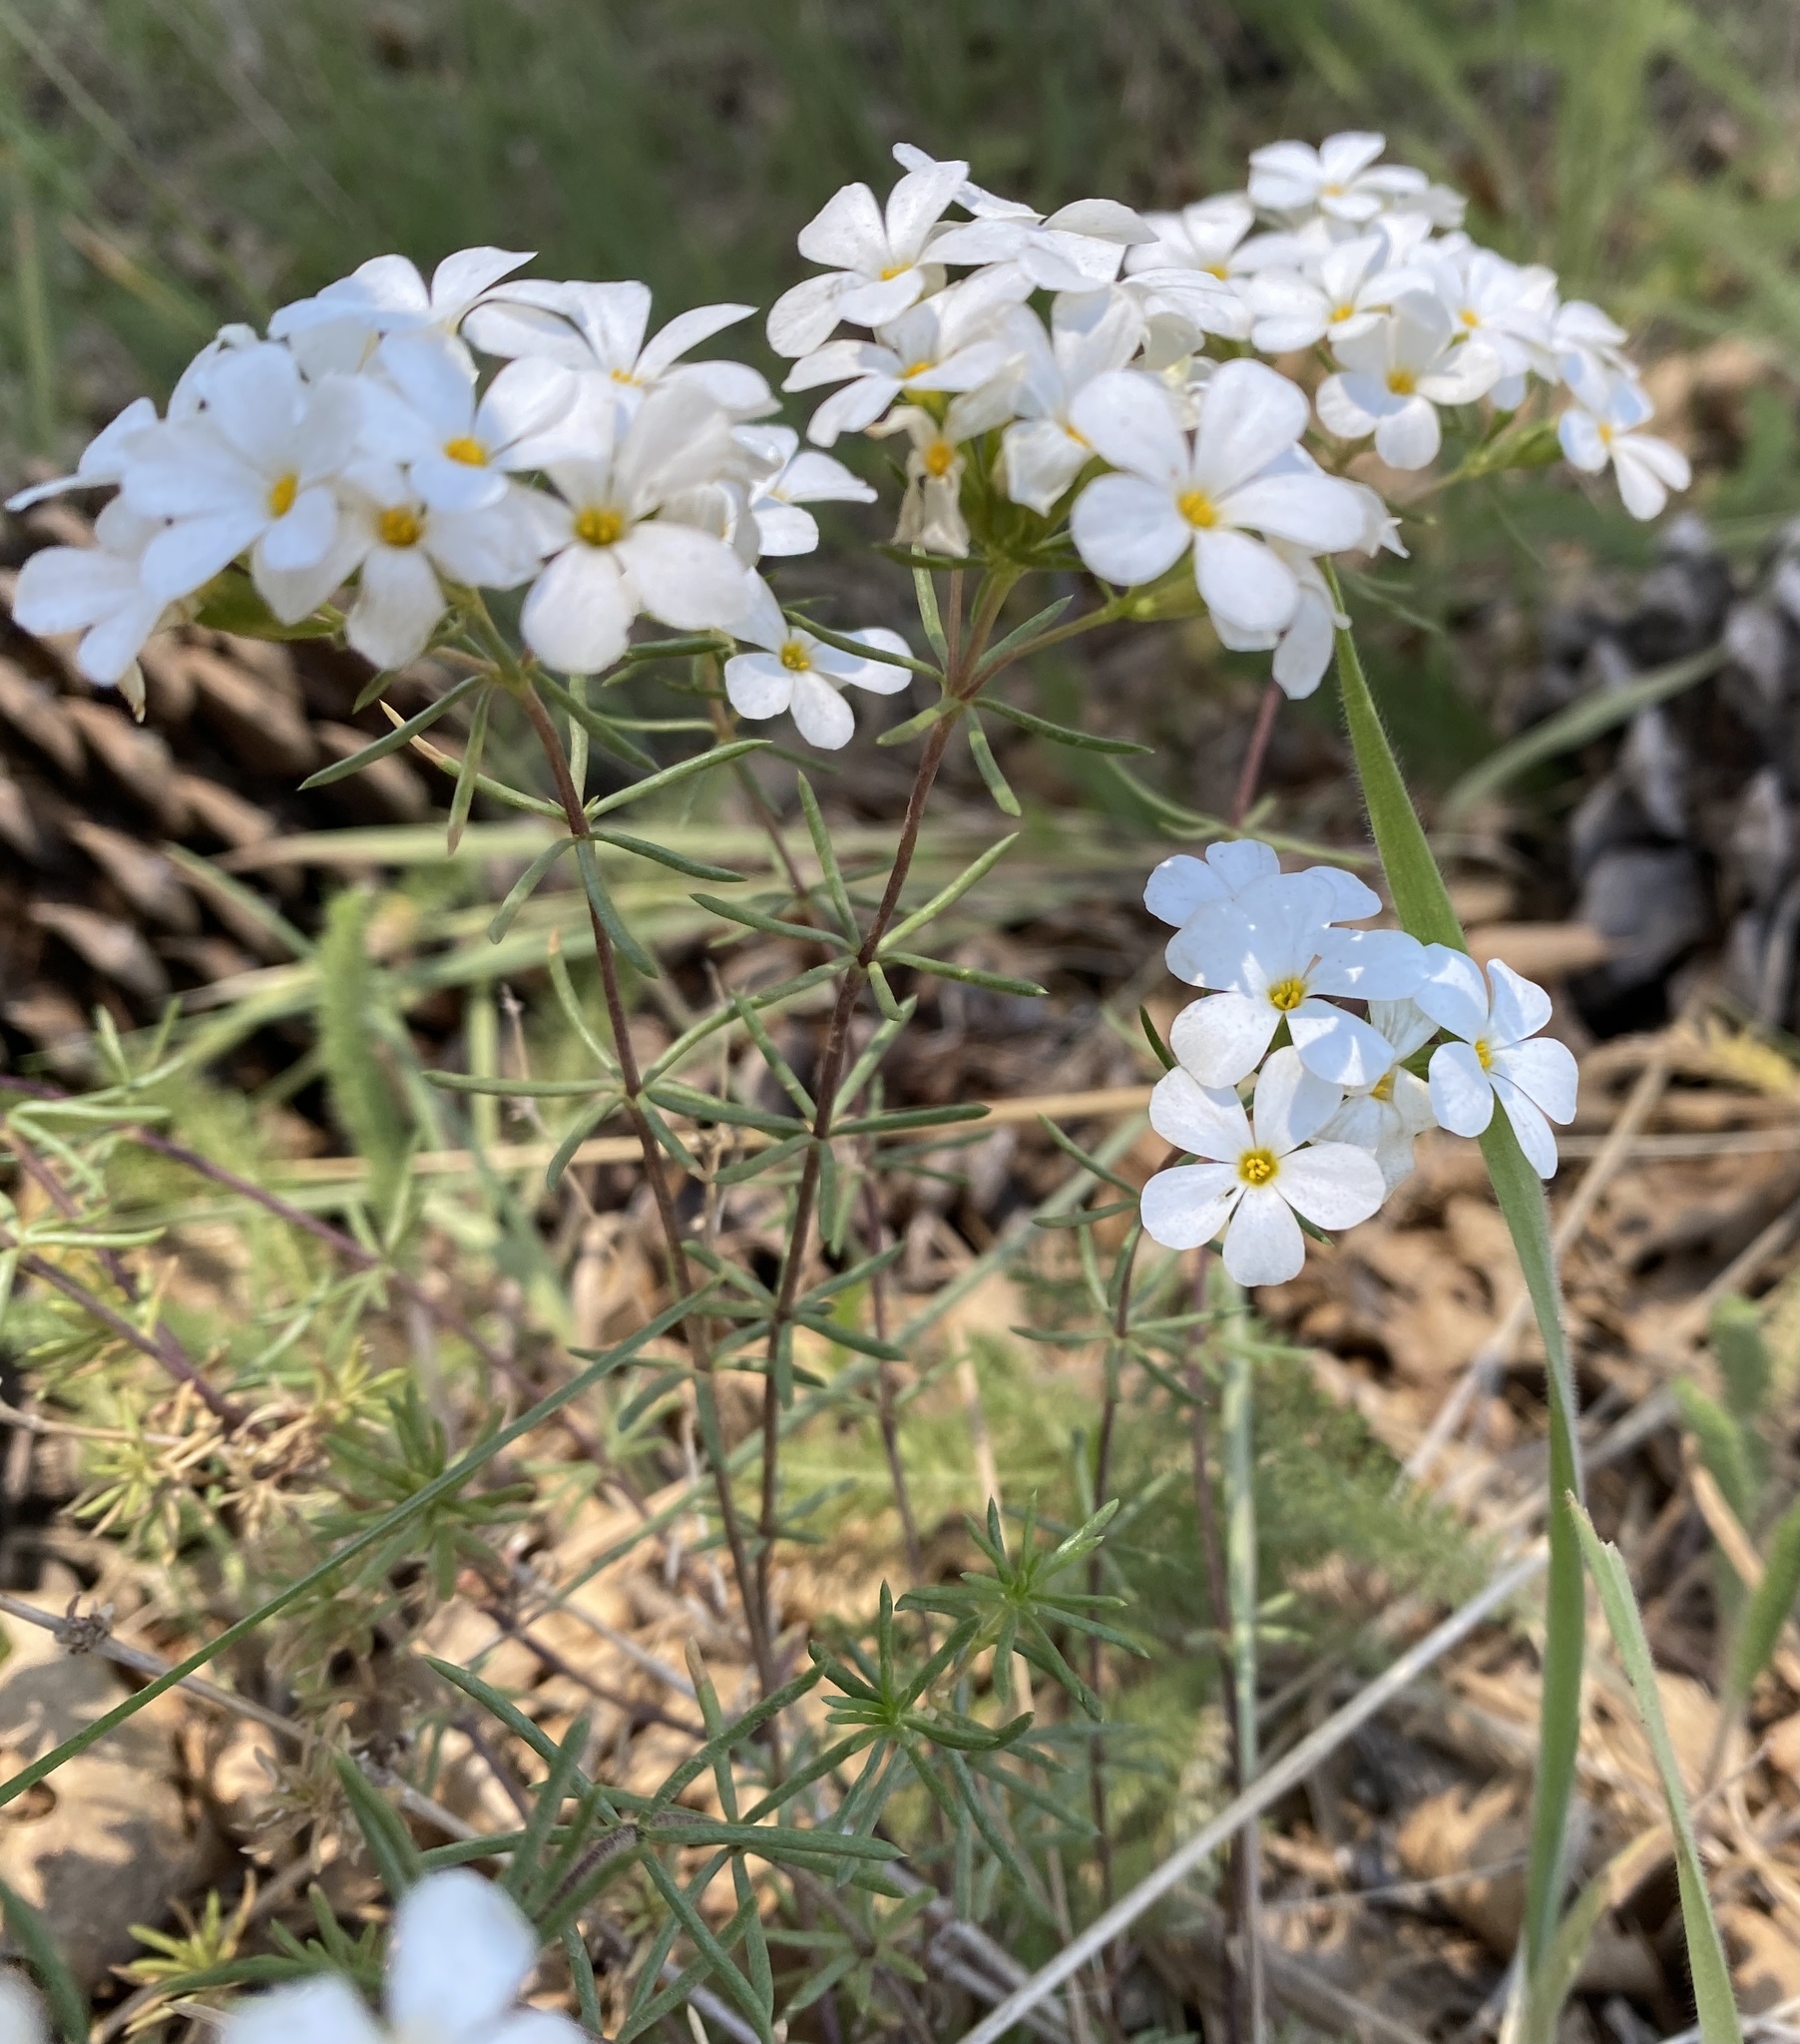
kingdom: Plantae
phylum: Tracheophyta
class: Magnoliopsida
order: Ericales
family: Polemoniaceae
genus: Leptosiphon
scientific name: Leptosiphon floribundum
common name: Many-flower linanthus
